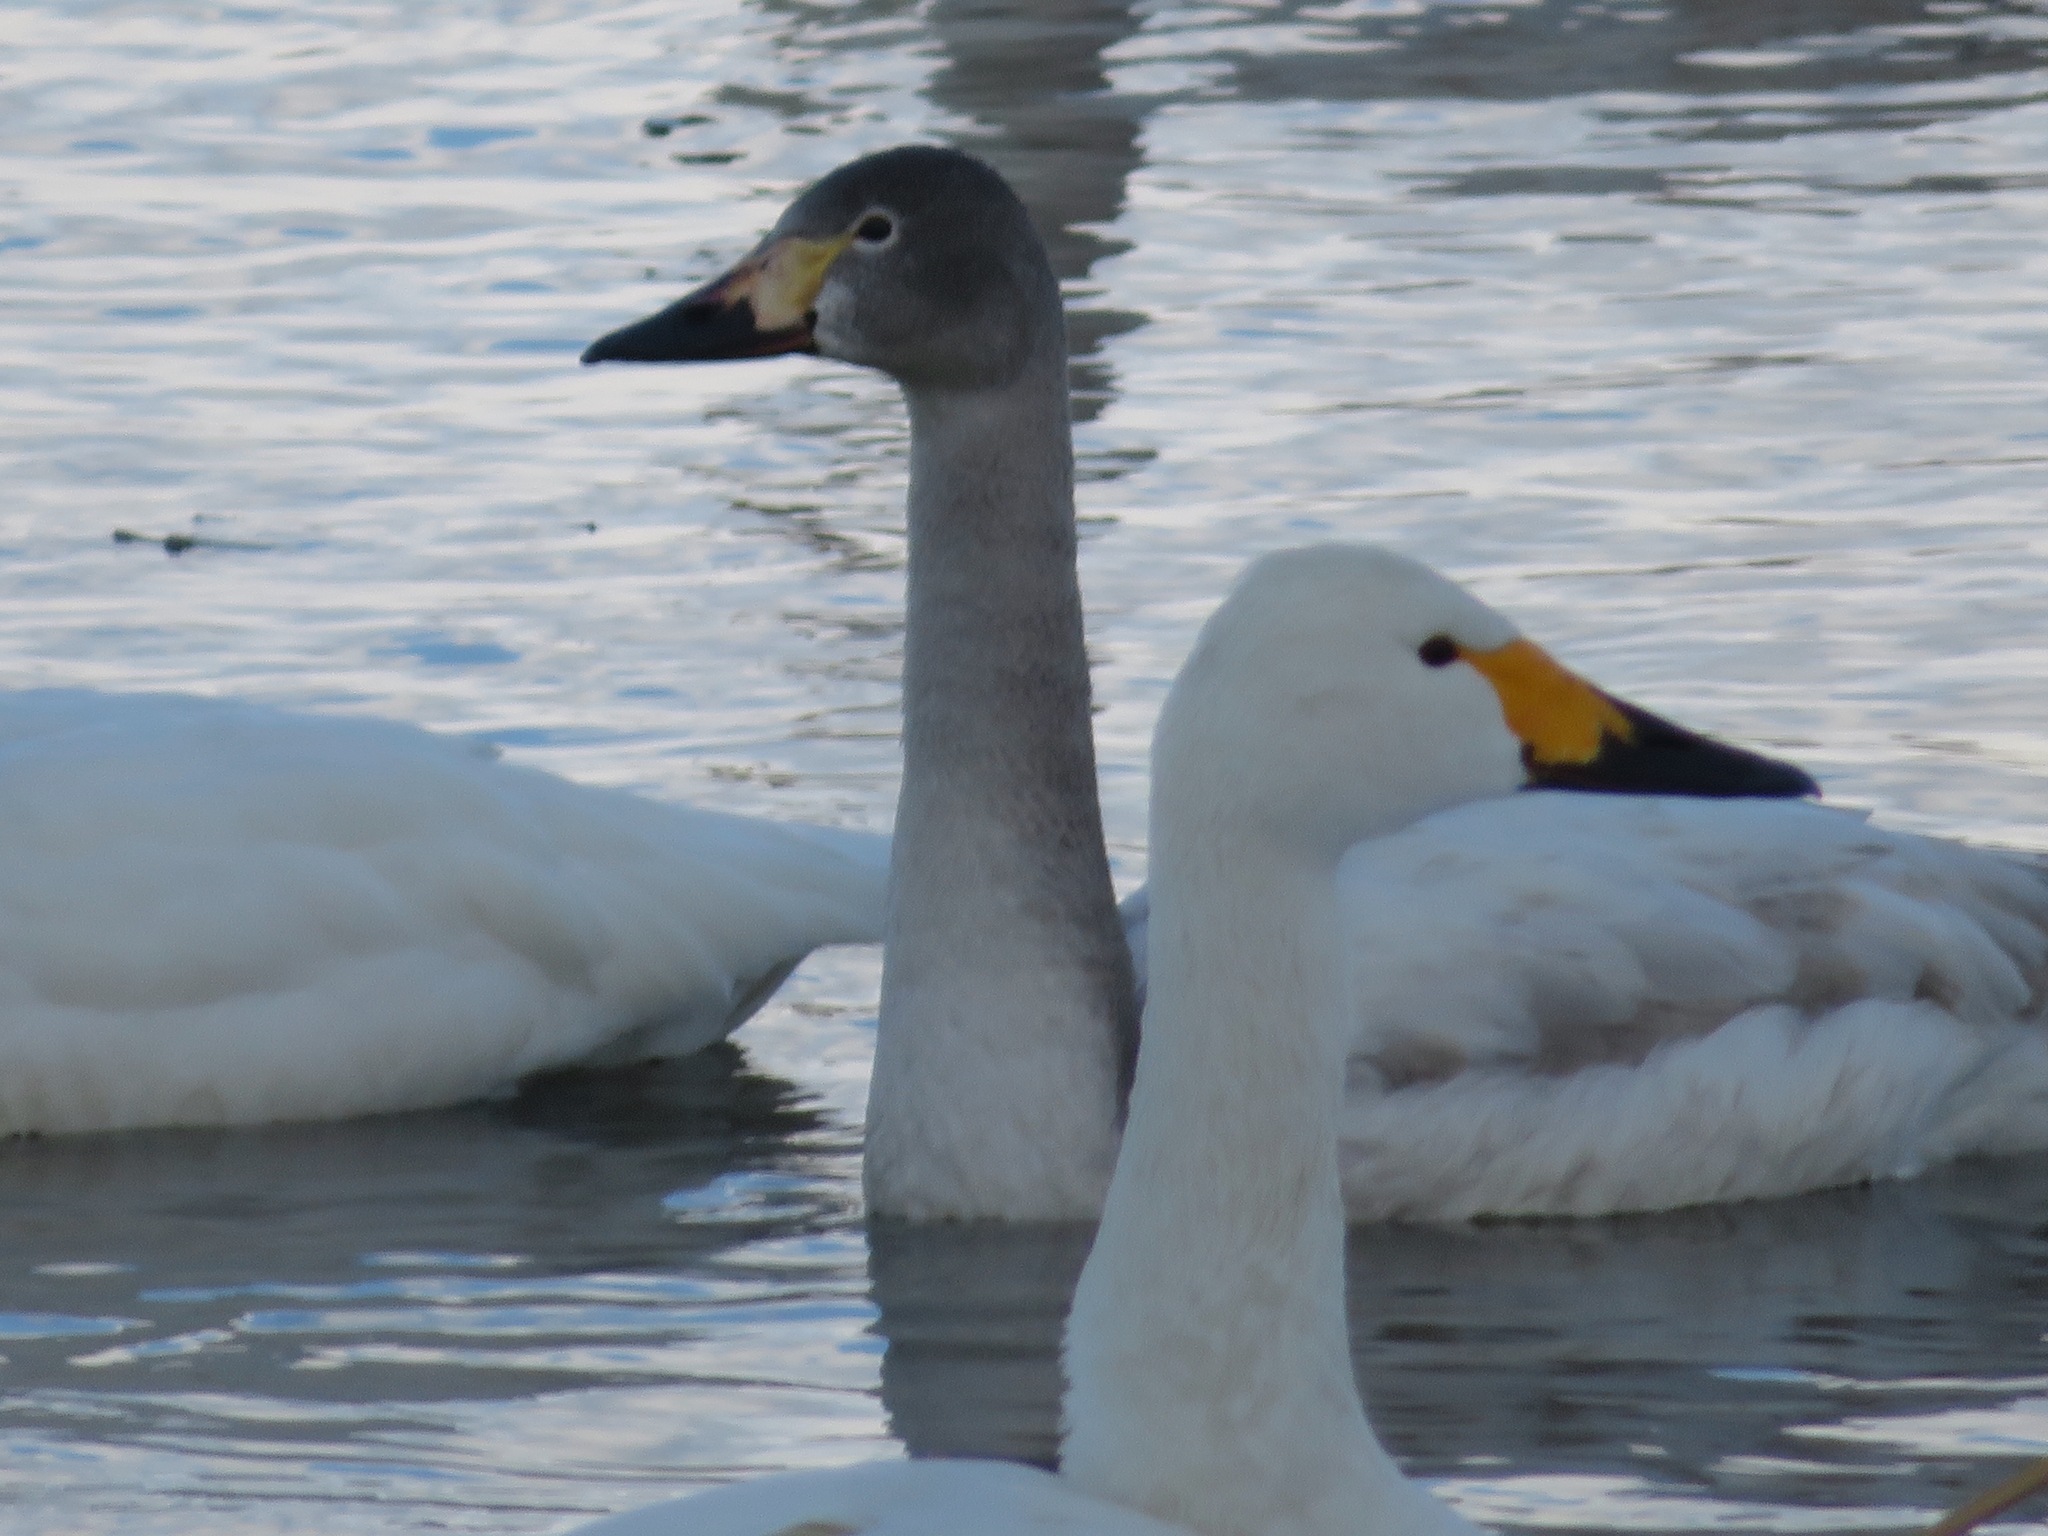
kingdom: Animalia
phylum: Chordata
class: Aves
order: Anseriformes
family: Anatidae
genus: Cygnus
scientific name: Cygnus columbianus
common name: Tundra swan
